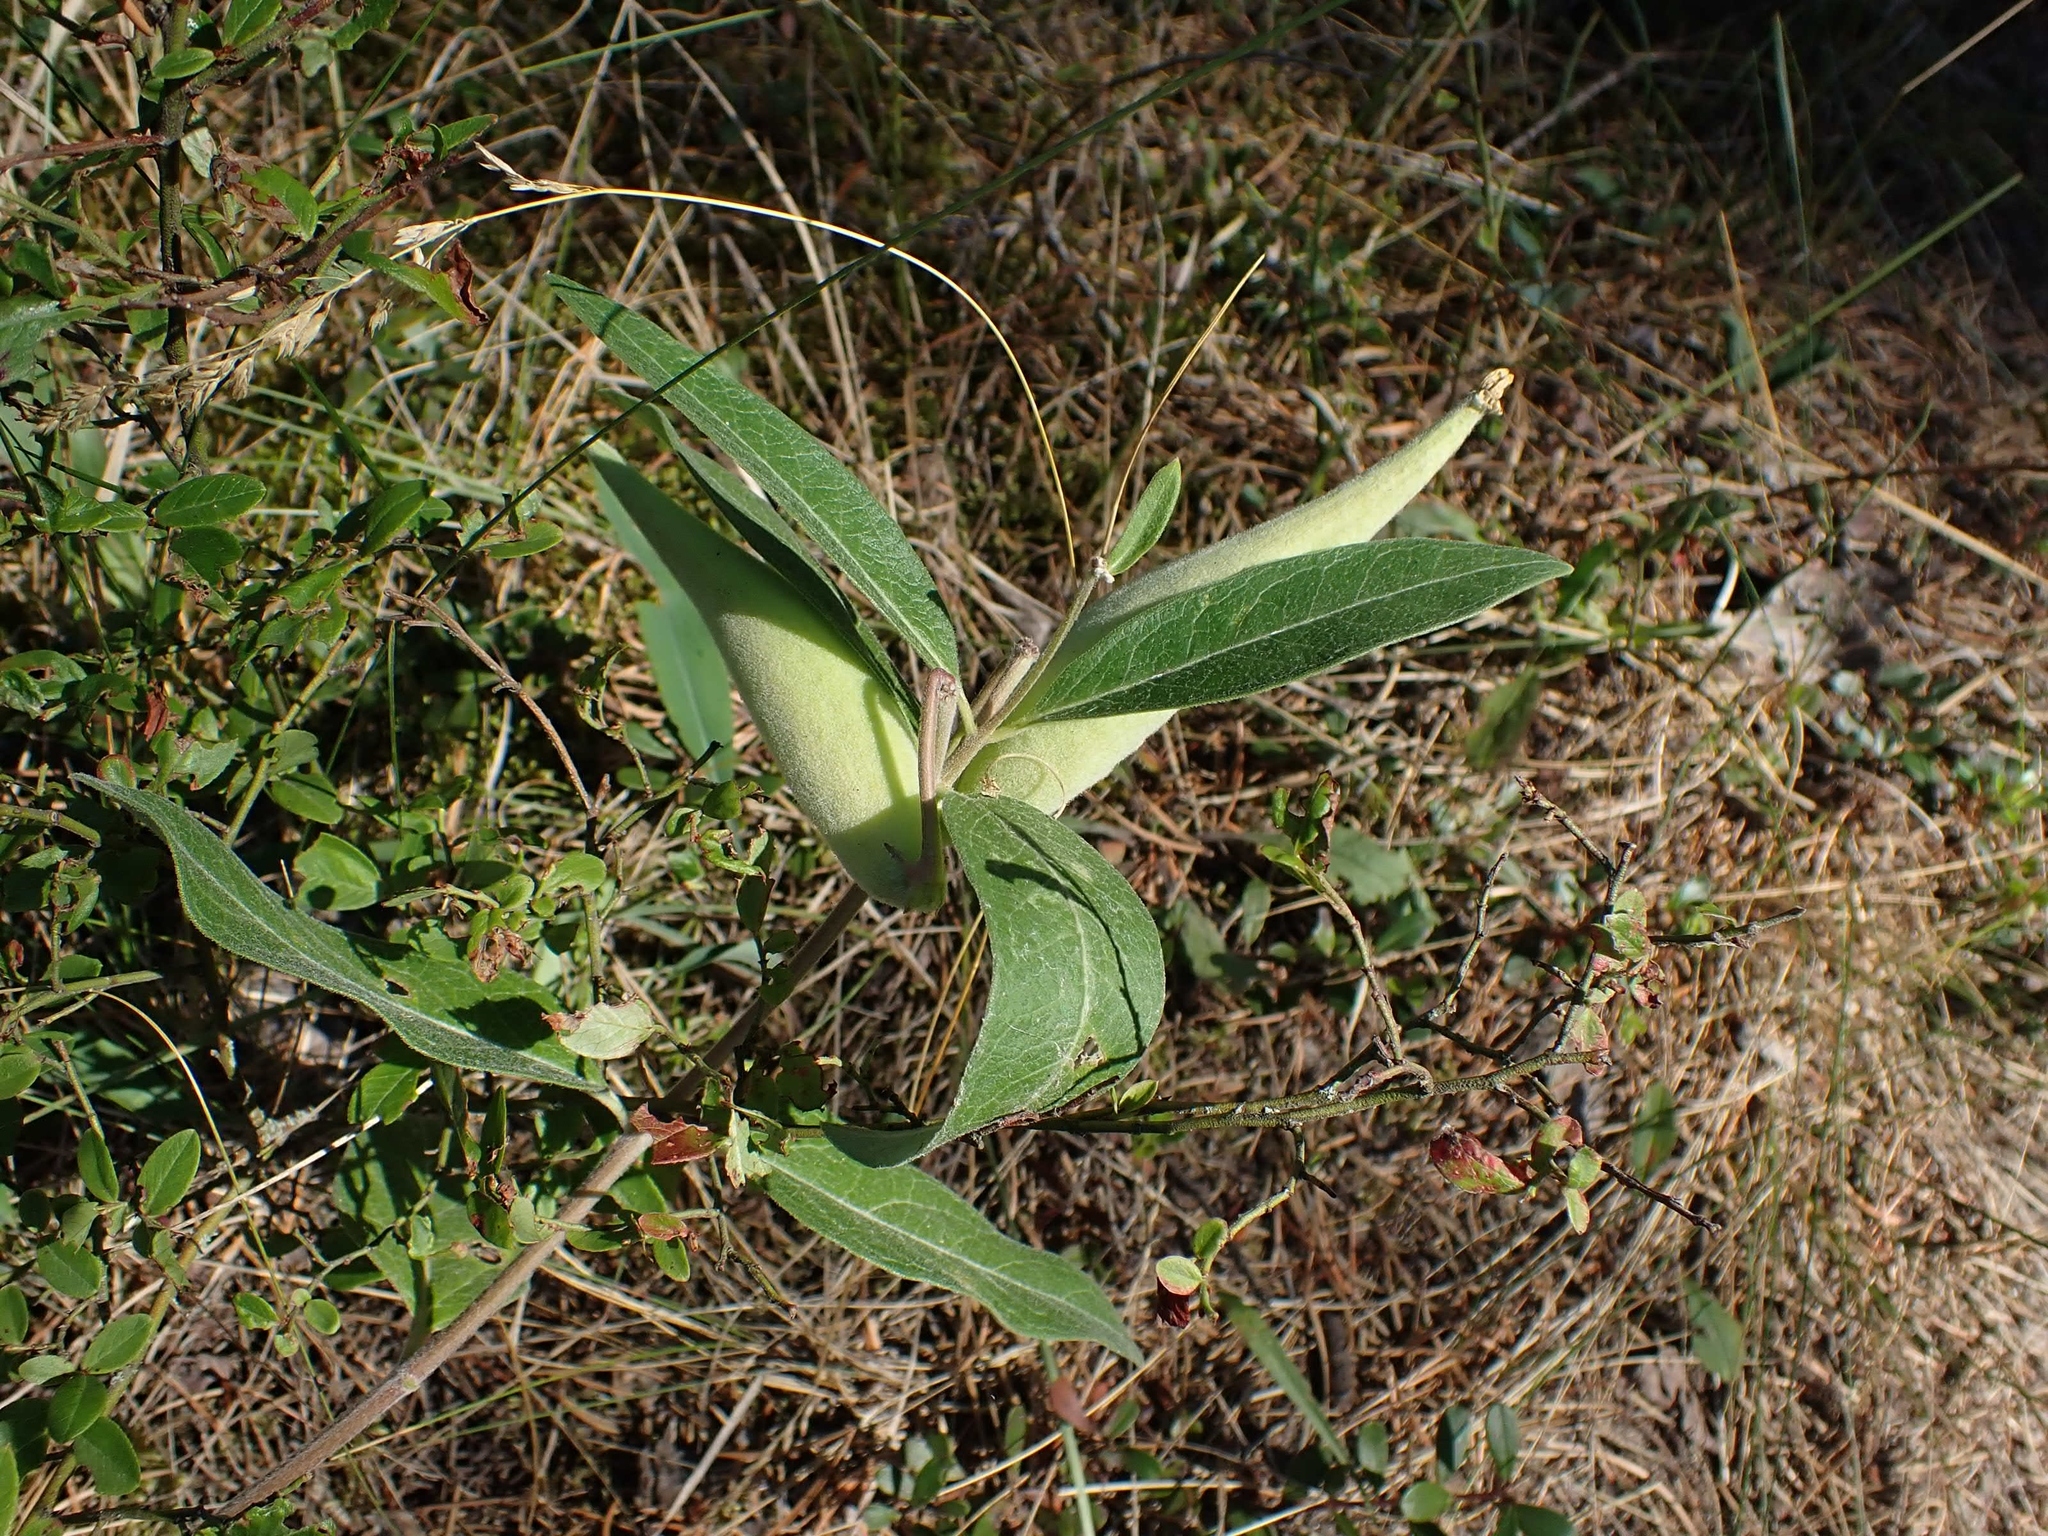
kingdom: Plantae
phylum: Tracheophyta
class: Magnoliopsida
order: Gentianales
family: Apocynaceae
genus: Asclepias
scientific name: Asclepias ovalifolia
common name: Dwarf milkweed
